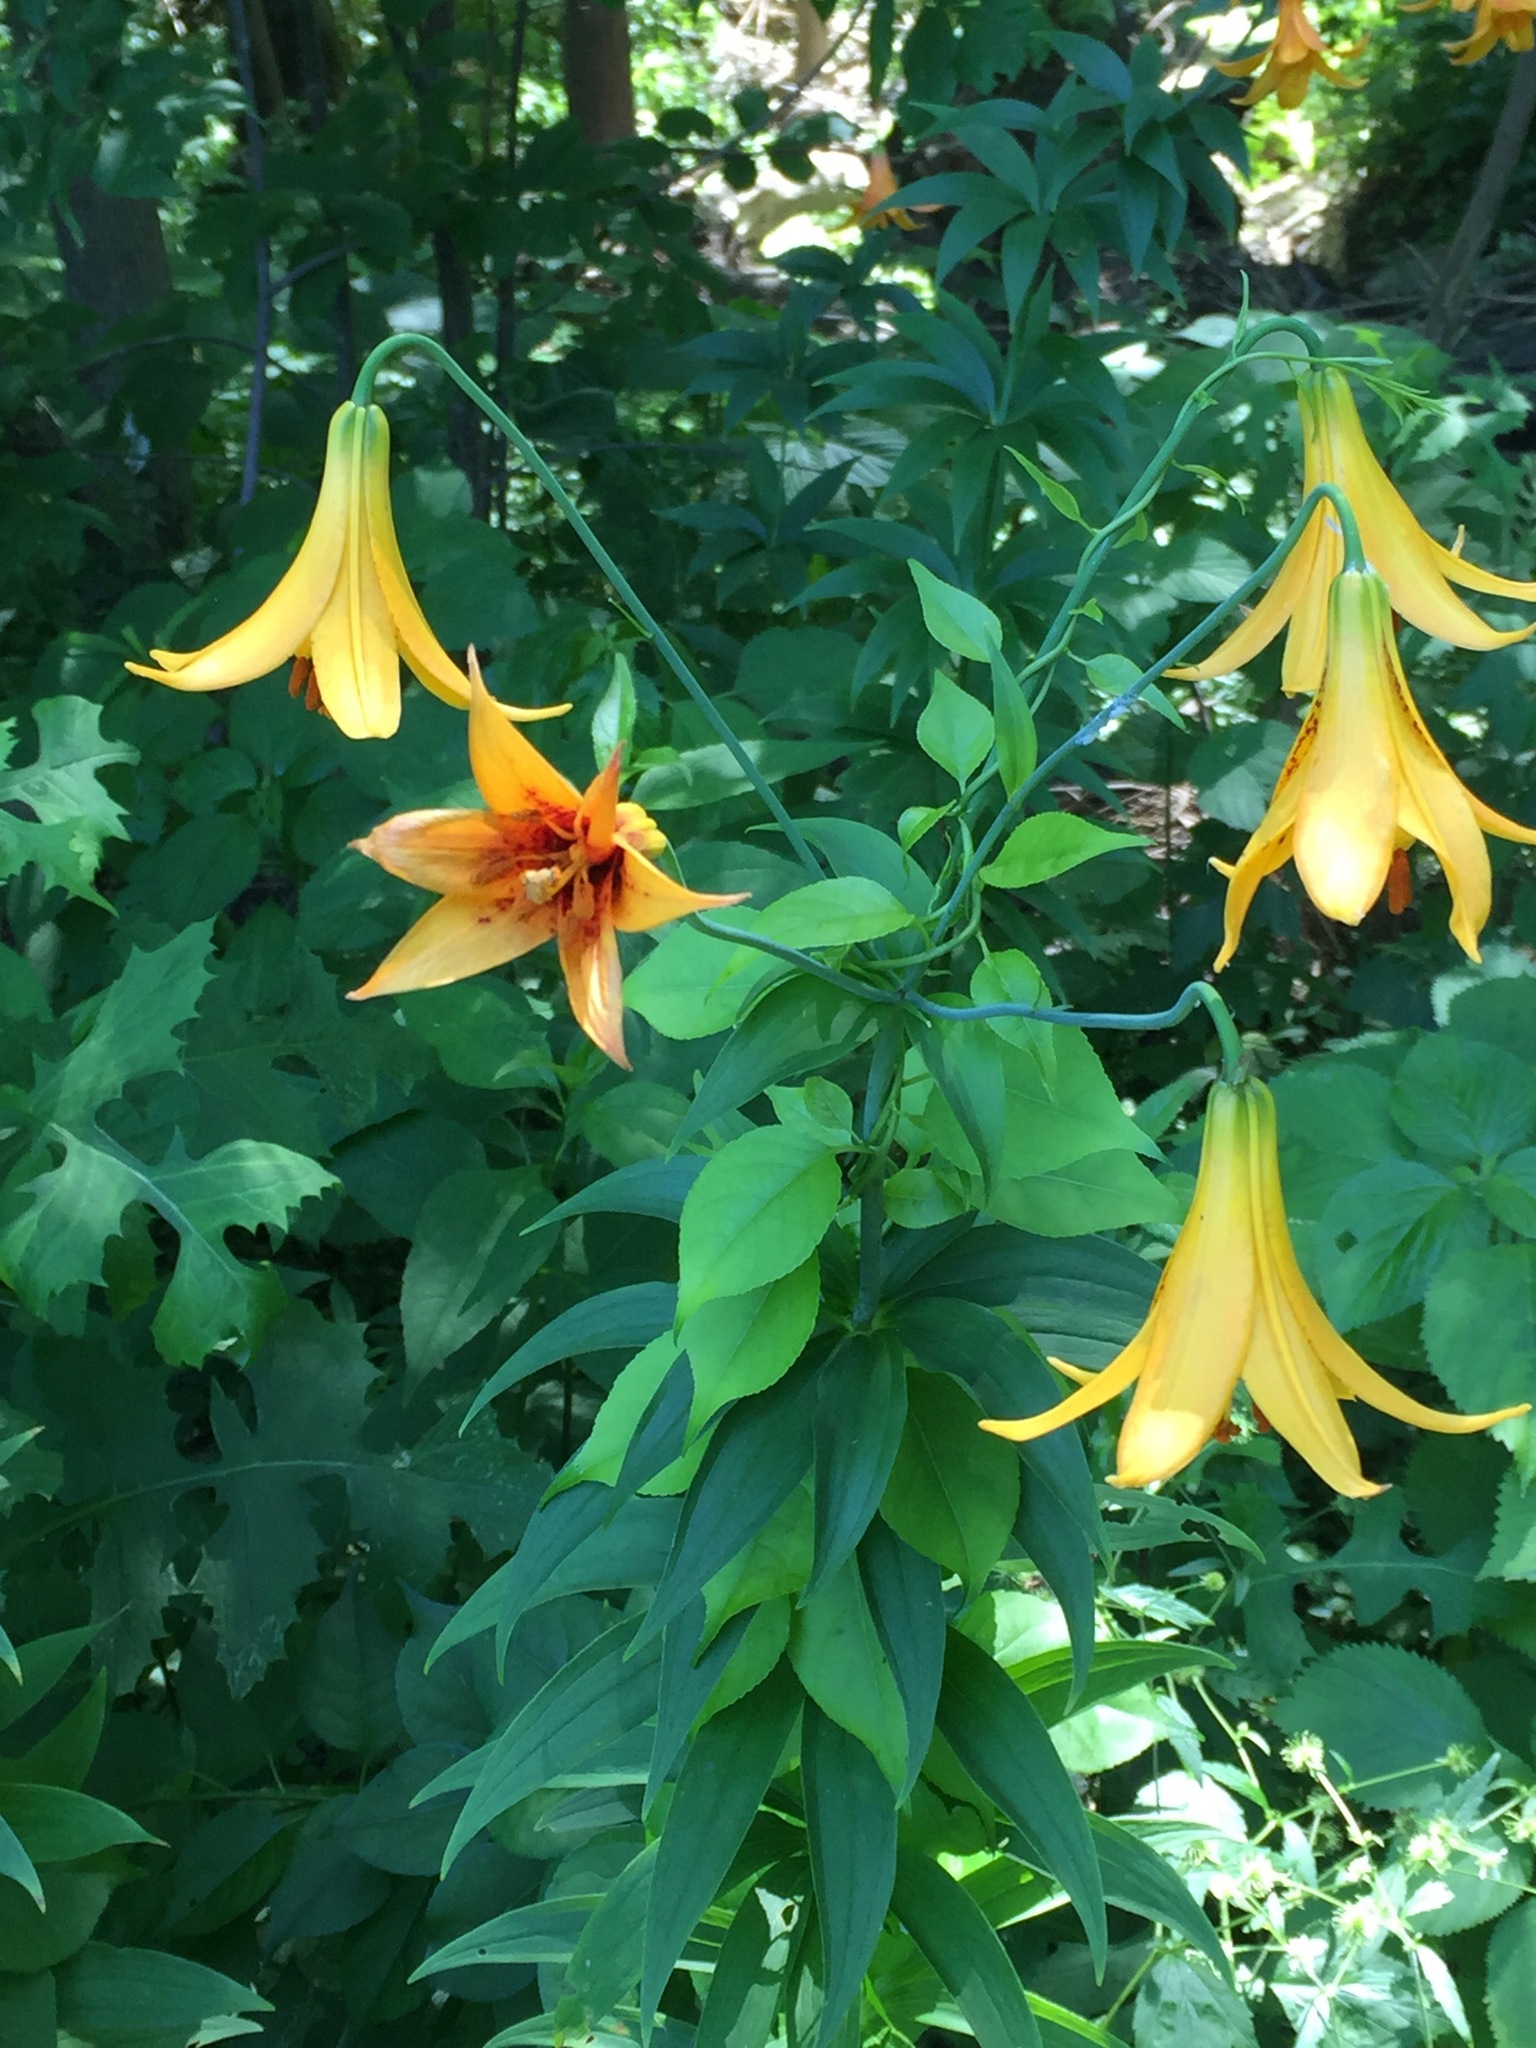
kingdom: Plantae
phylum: Tracheophyta
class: Liliopsida
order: Liliales
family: Liliaceae
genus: Lilium
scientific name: Lilium canadense
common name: Canada lily
